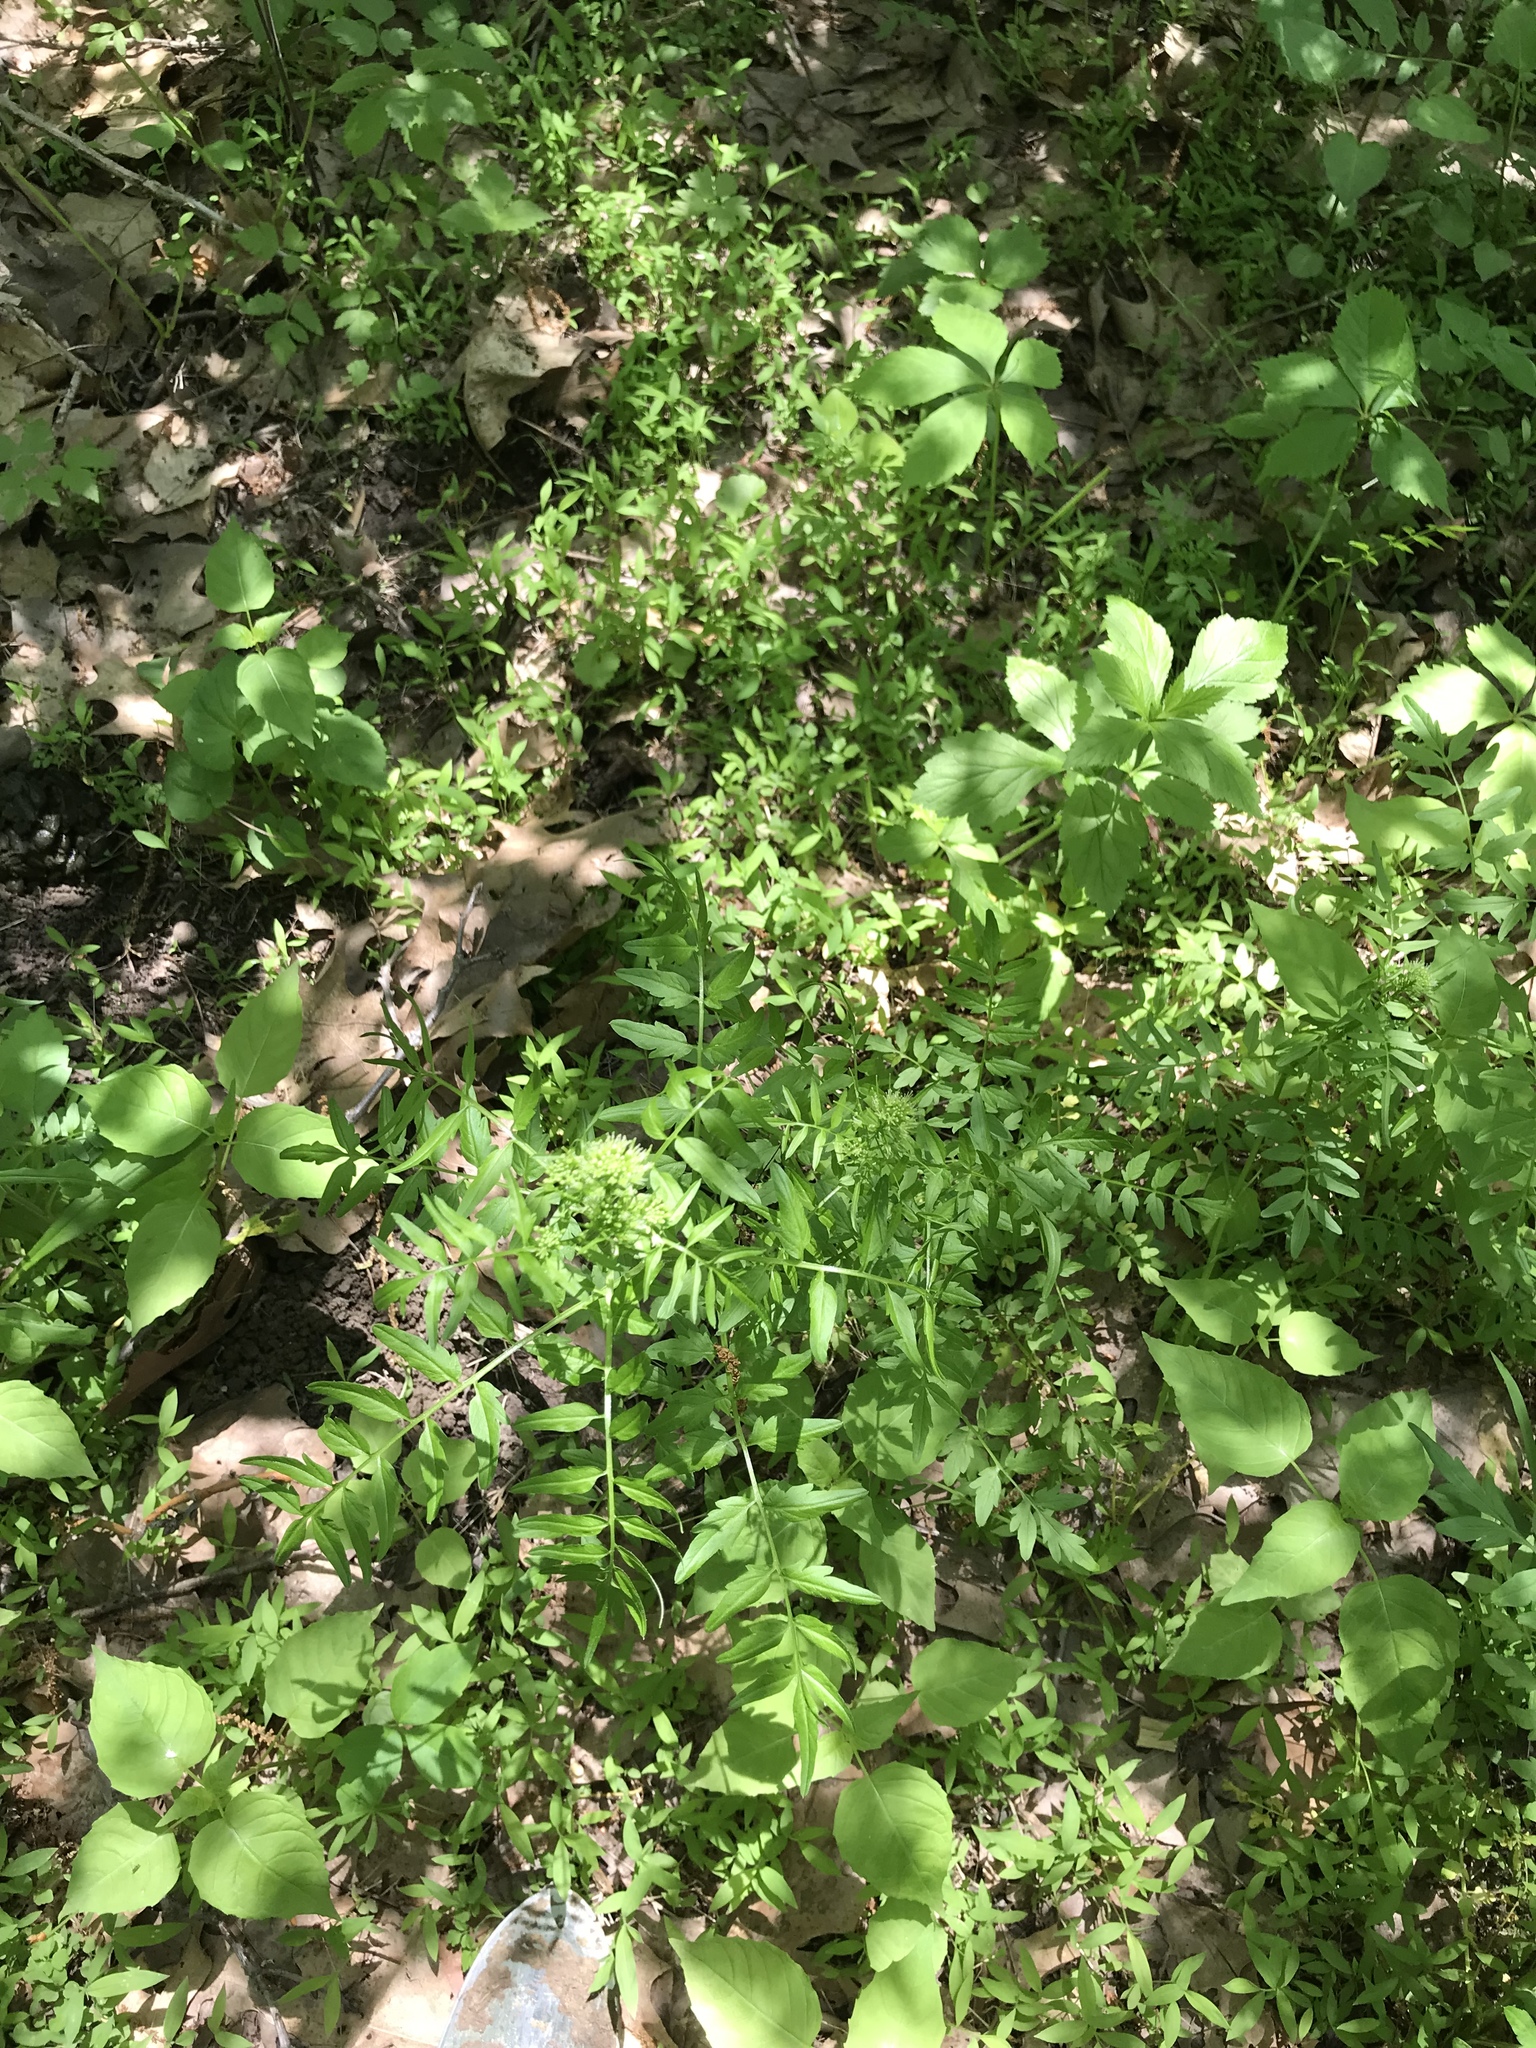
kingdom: Plantae
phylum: Tracheophyta
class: Magnoliopsida
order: Brassicales
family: Brassicaceae
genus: Cardamine
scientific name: Cardamine impatiens
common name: Narrow-leaved bitter-cress
